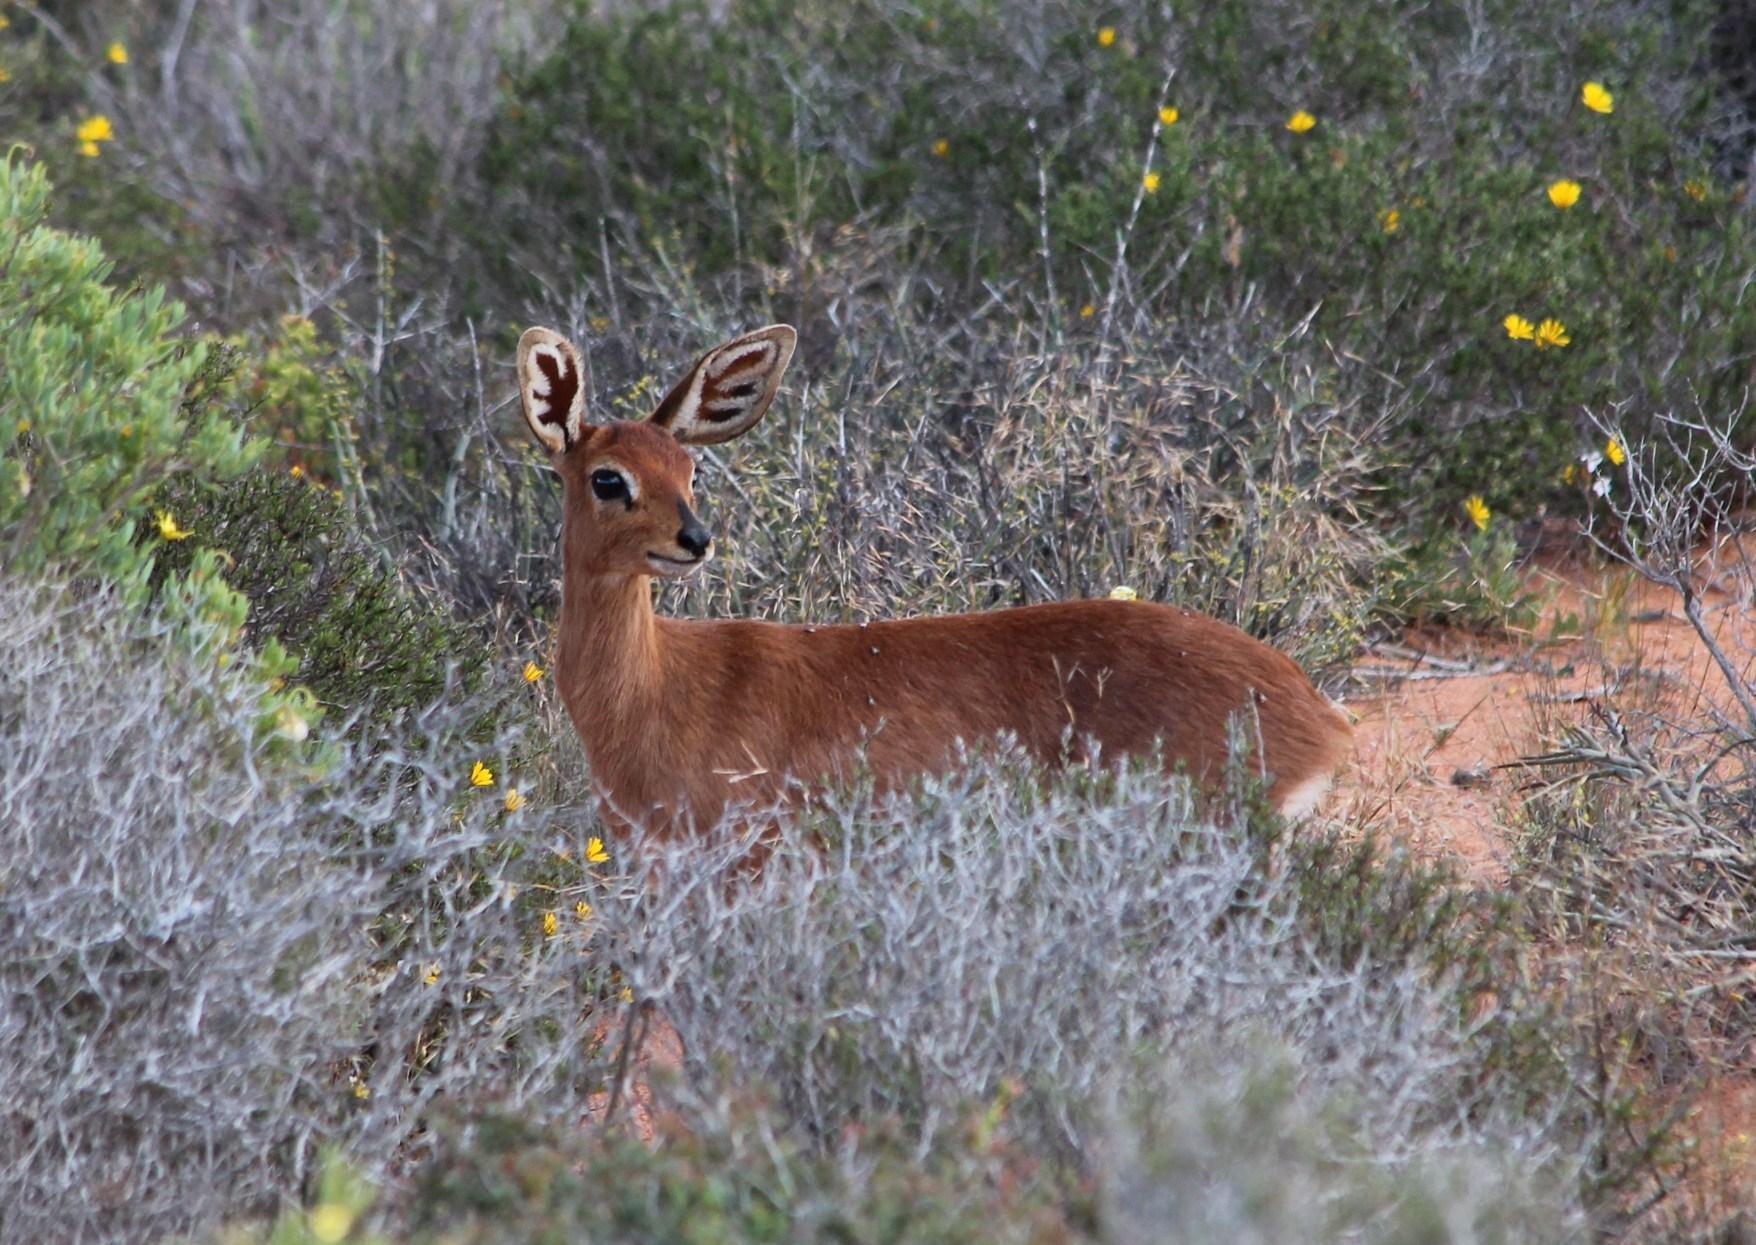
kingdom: Animalia
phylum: Chordata
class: Mammalia
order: Artiodactyla
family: Bovidae
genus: Raphicerus
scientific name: Raphicerus campestris
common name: Steenbok
